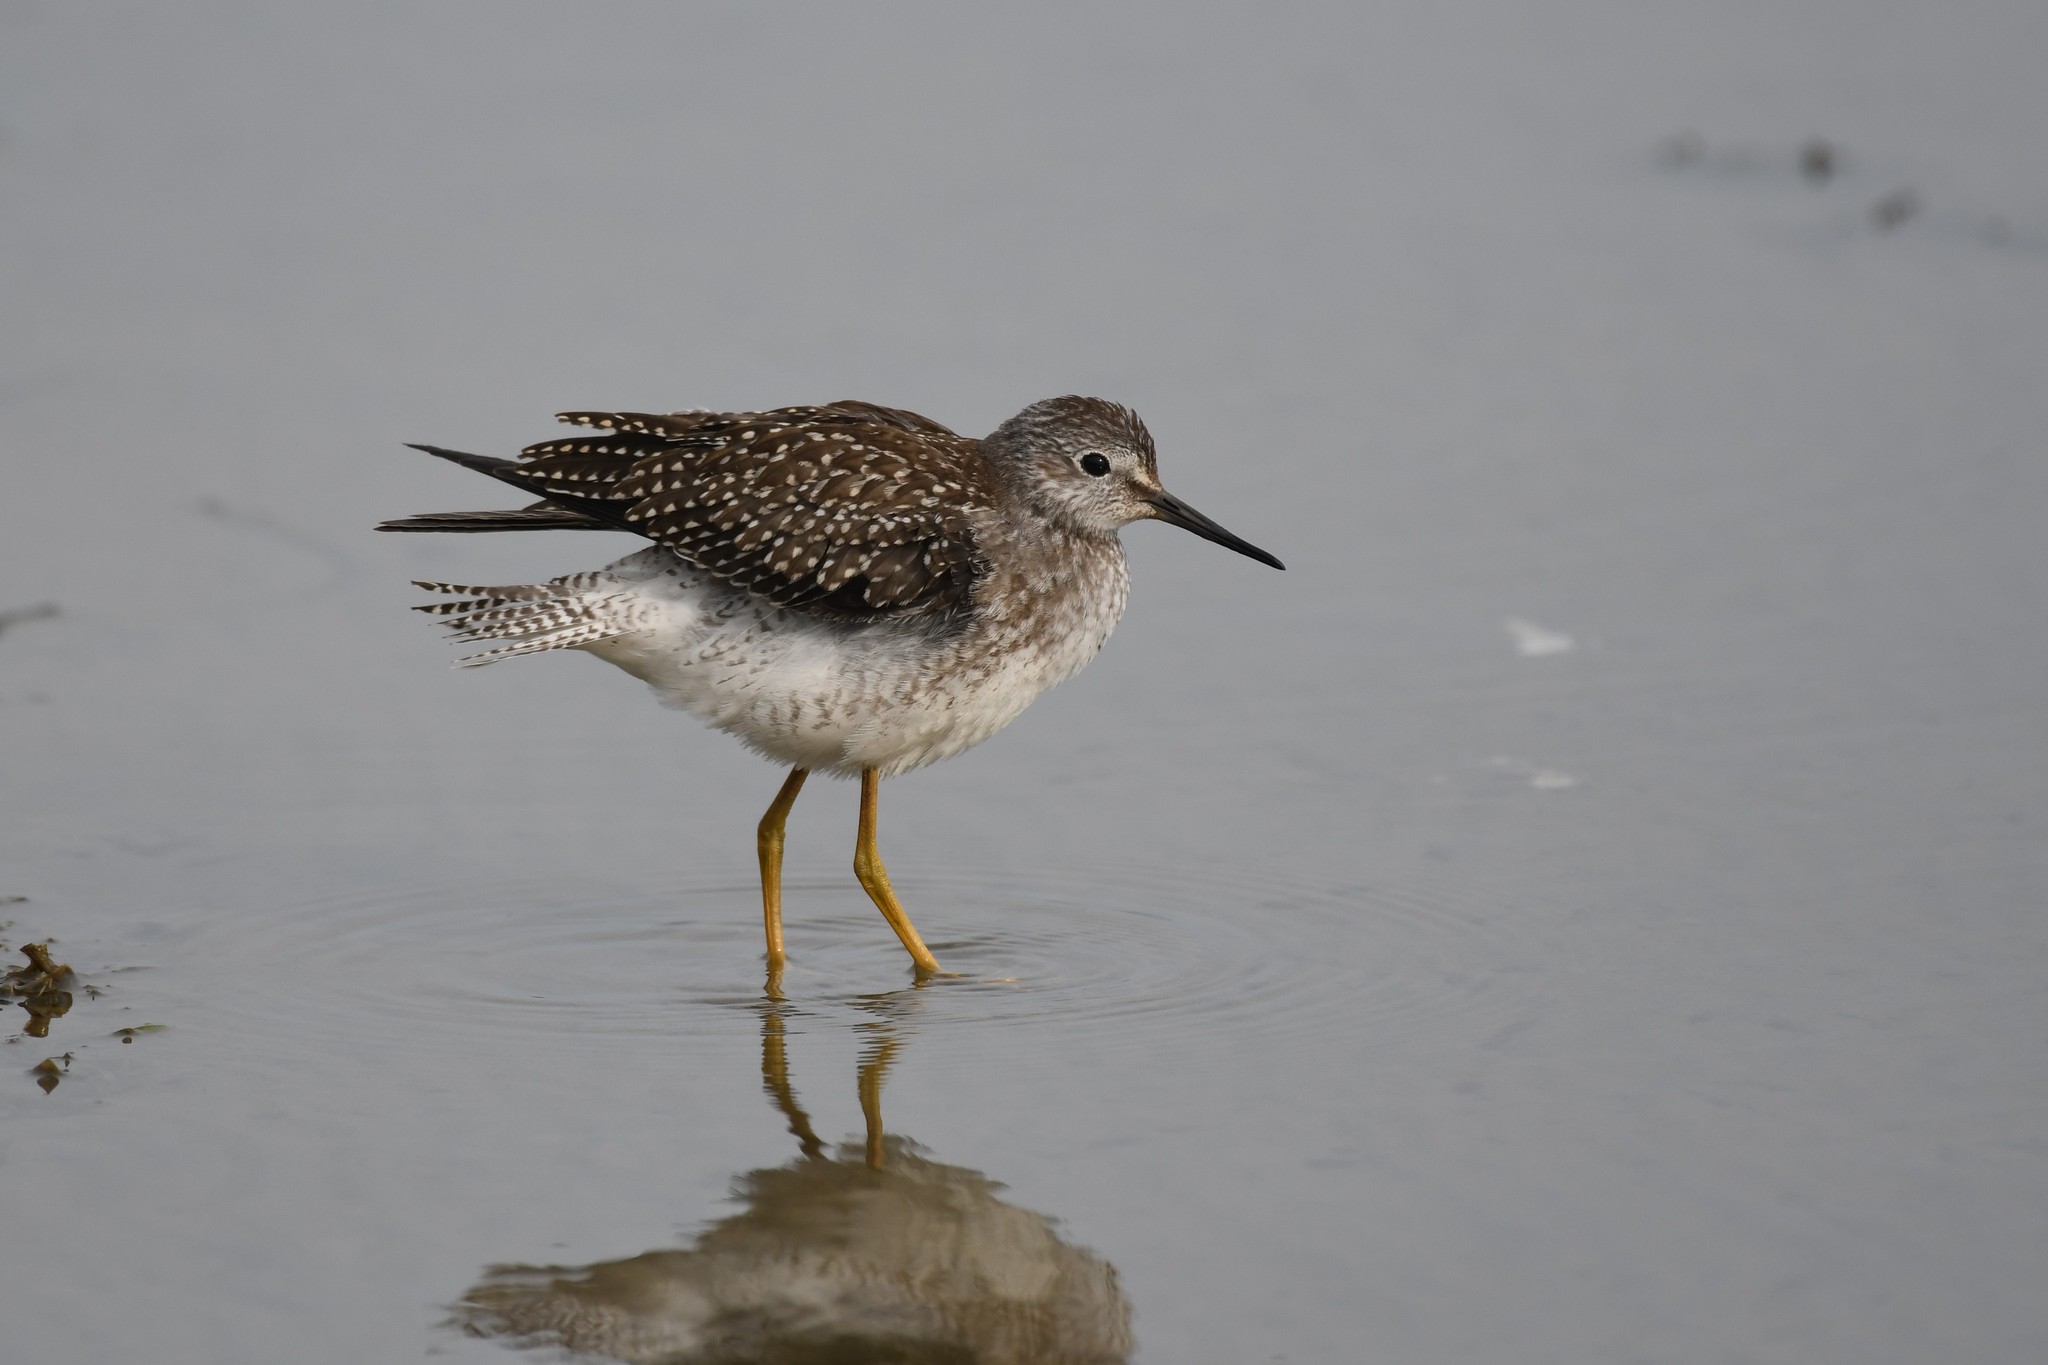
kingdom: Animalia
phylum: Chordata
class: Aves
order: Charadriiformes
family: Scolopacidae
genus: Tringa
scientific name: Tringa flavipes
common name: Lesser yellowlegs
